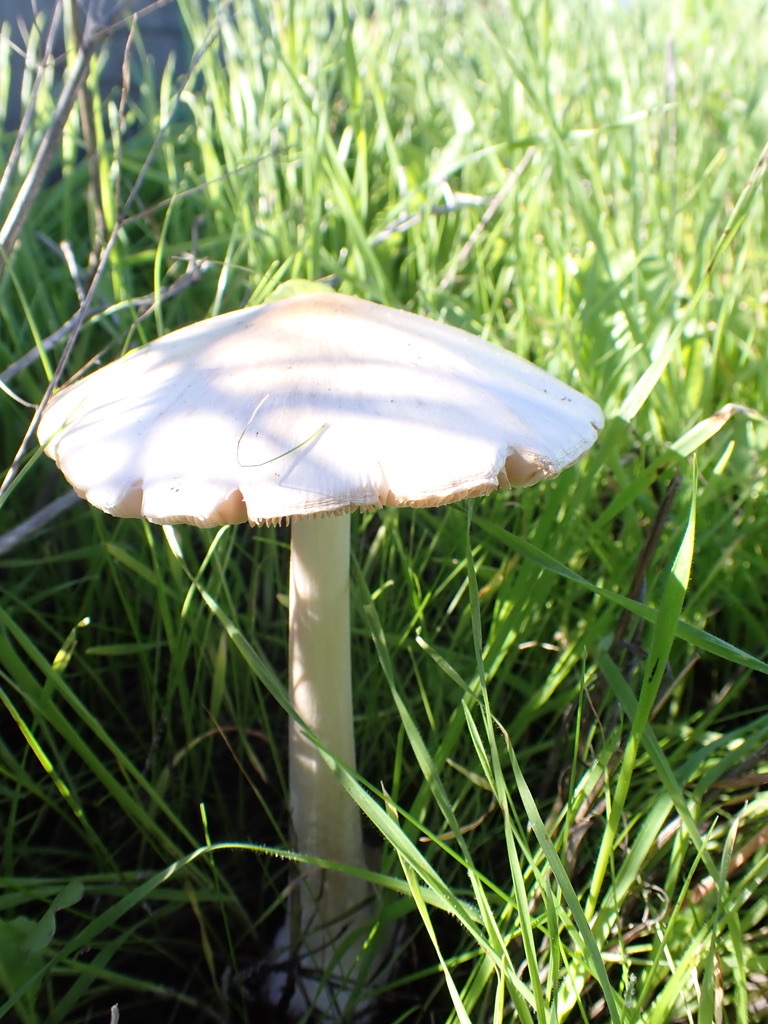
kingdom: Fungi
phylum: Basidiomycota
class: Agaricomycetes
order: Agaricales
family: Pluteaceae
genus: Volvopluteus
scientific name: Volvopluteus gloiocephalus
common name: Stubble rosegill
